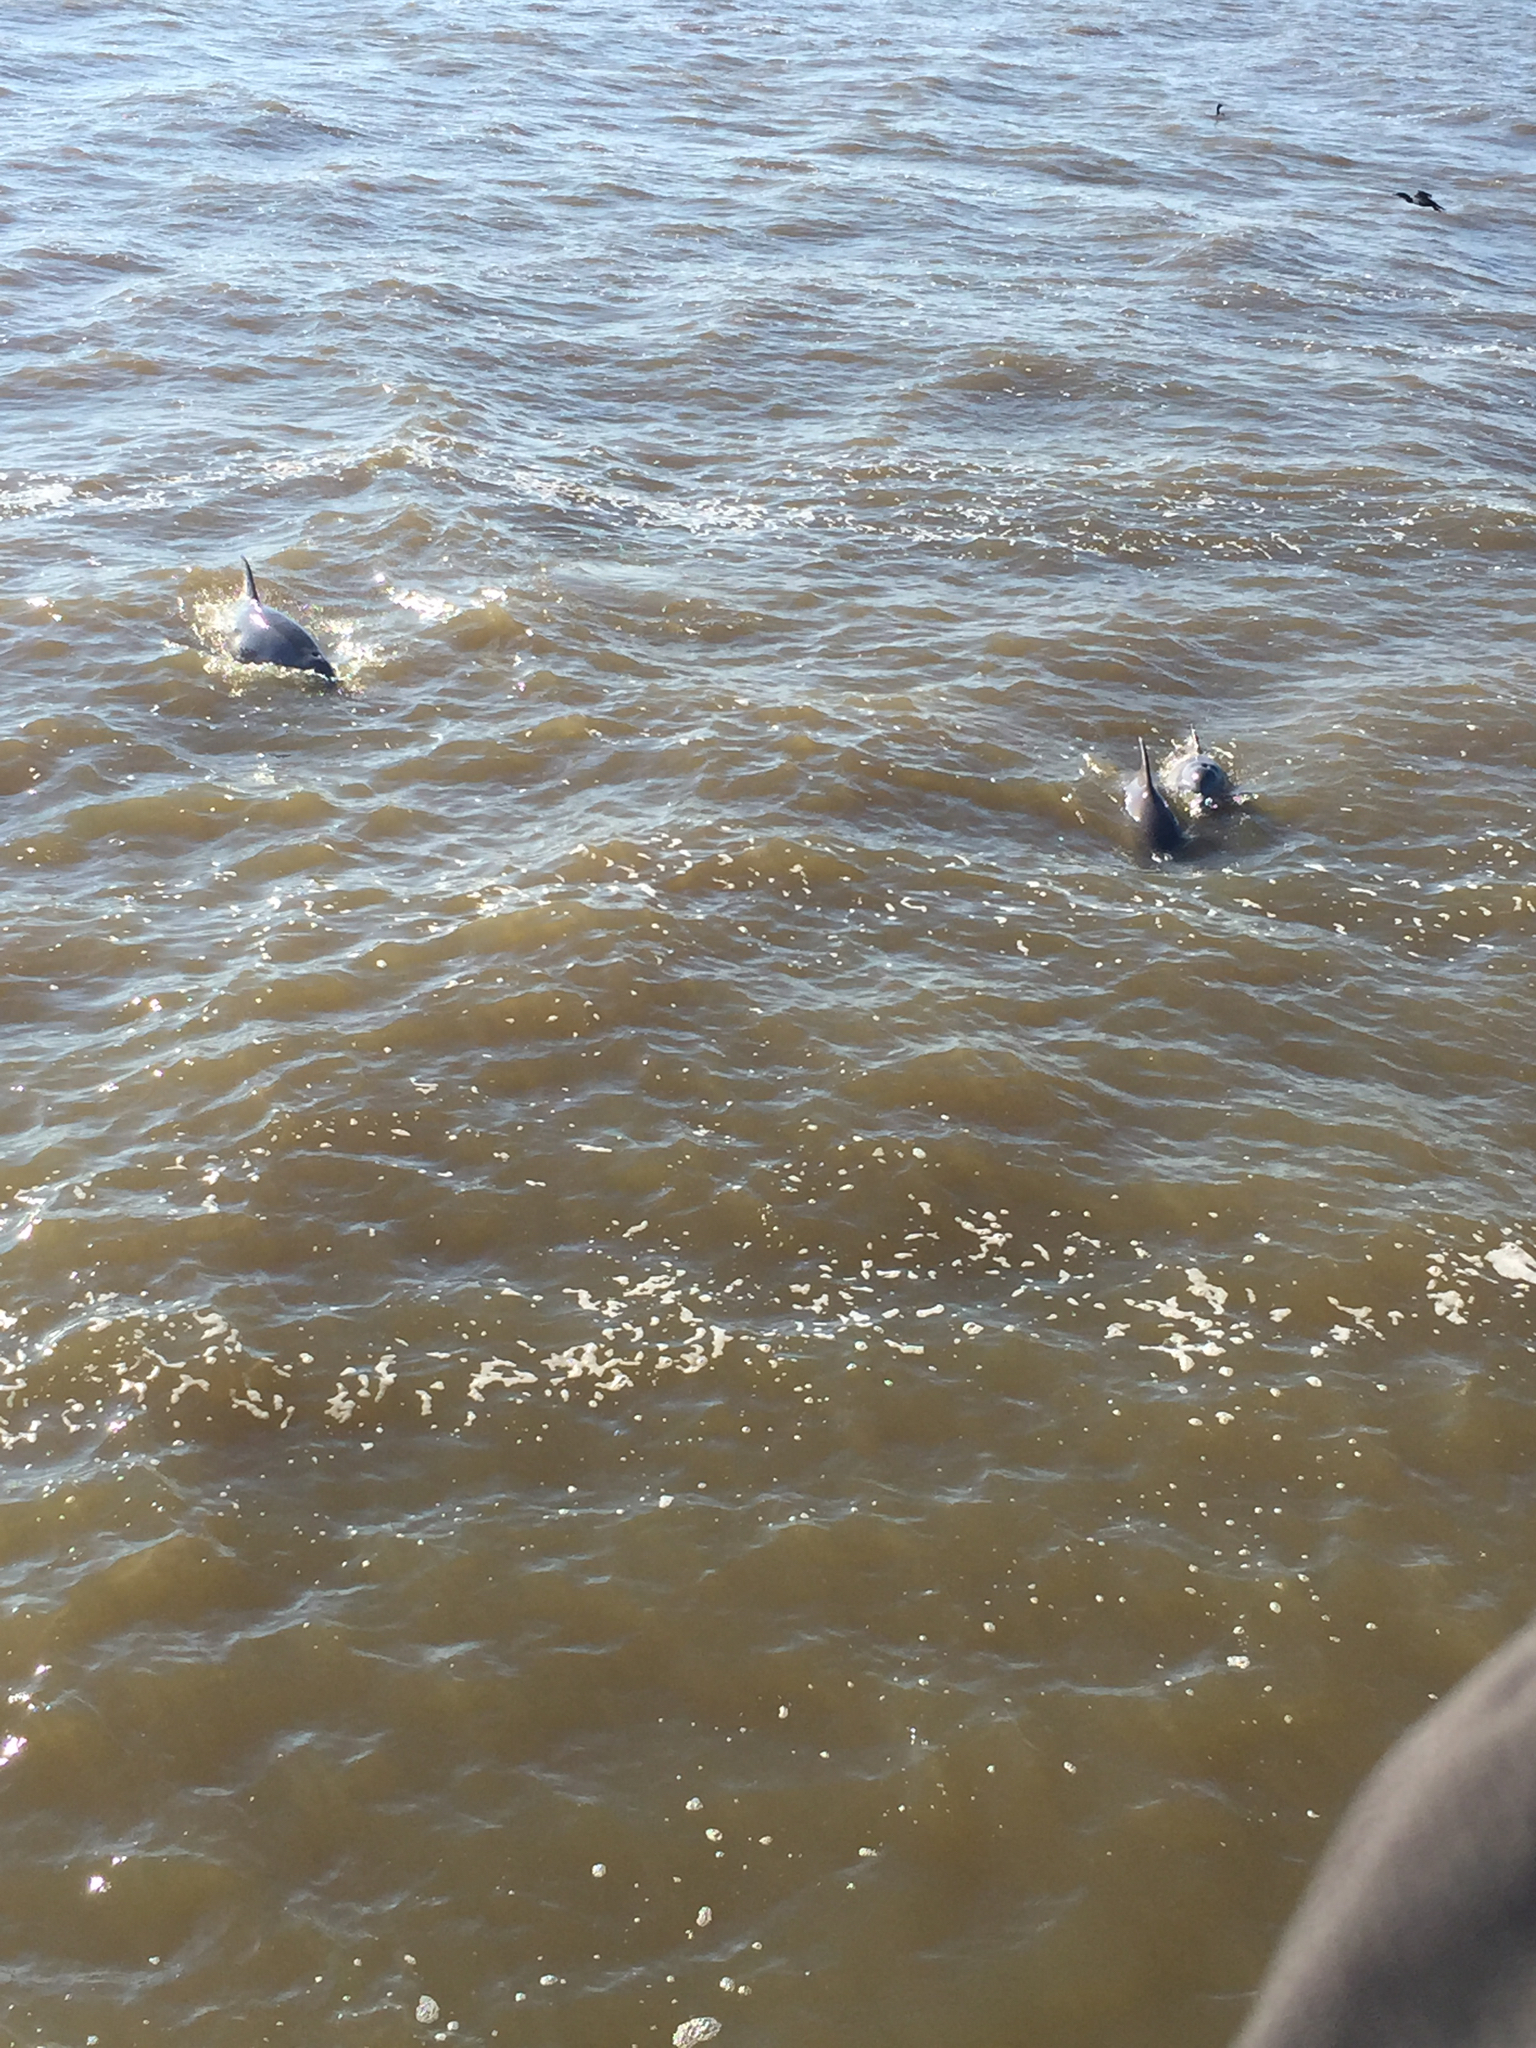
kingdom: Animalia
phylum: Chordata
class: Mammalia
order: Cetacea
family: Delphinidae
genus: Tursiops
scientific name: Tursiops truncatus
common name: Bottlenose dolphin
